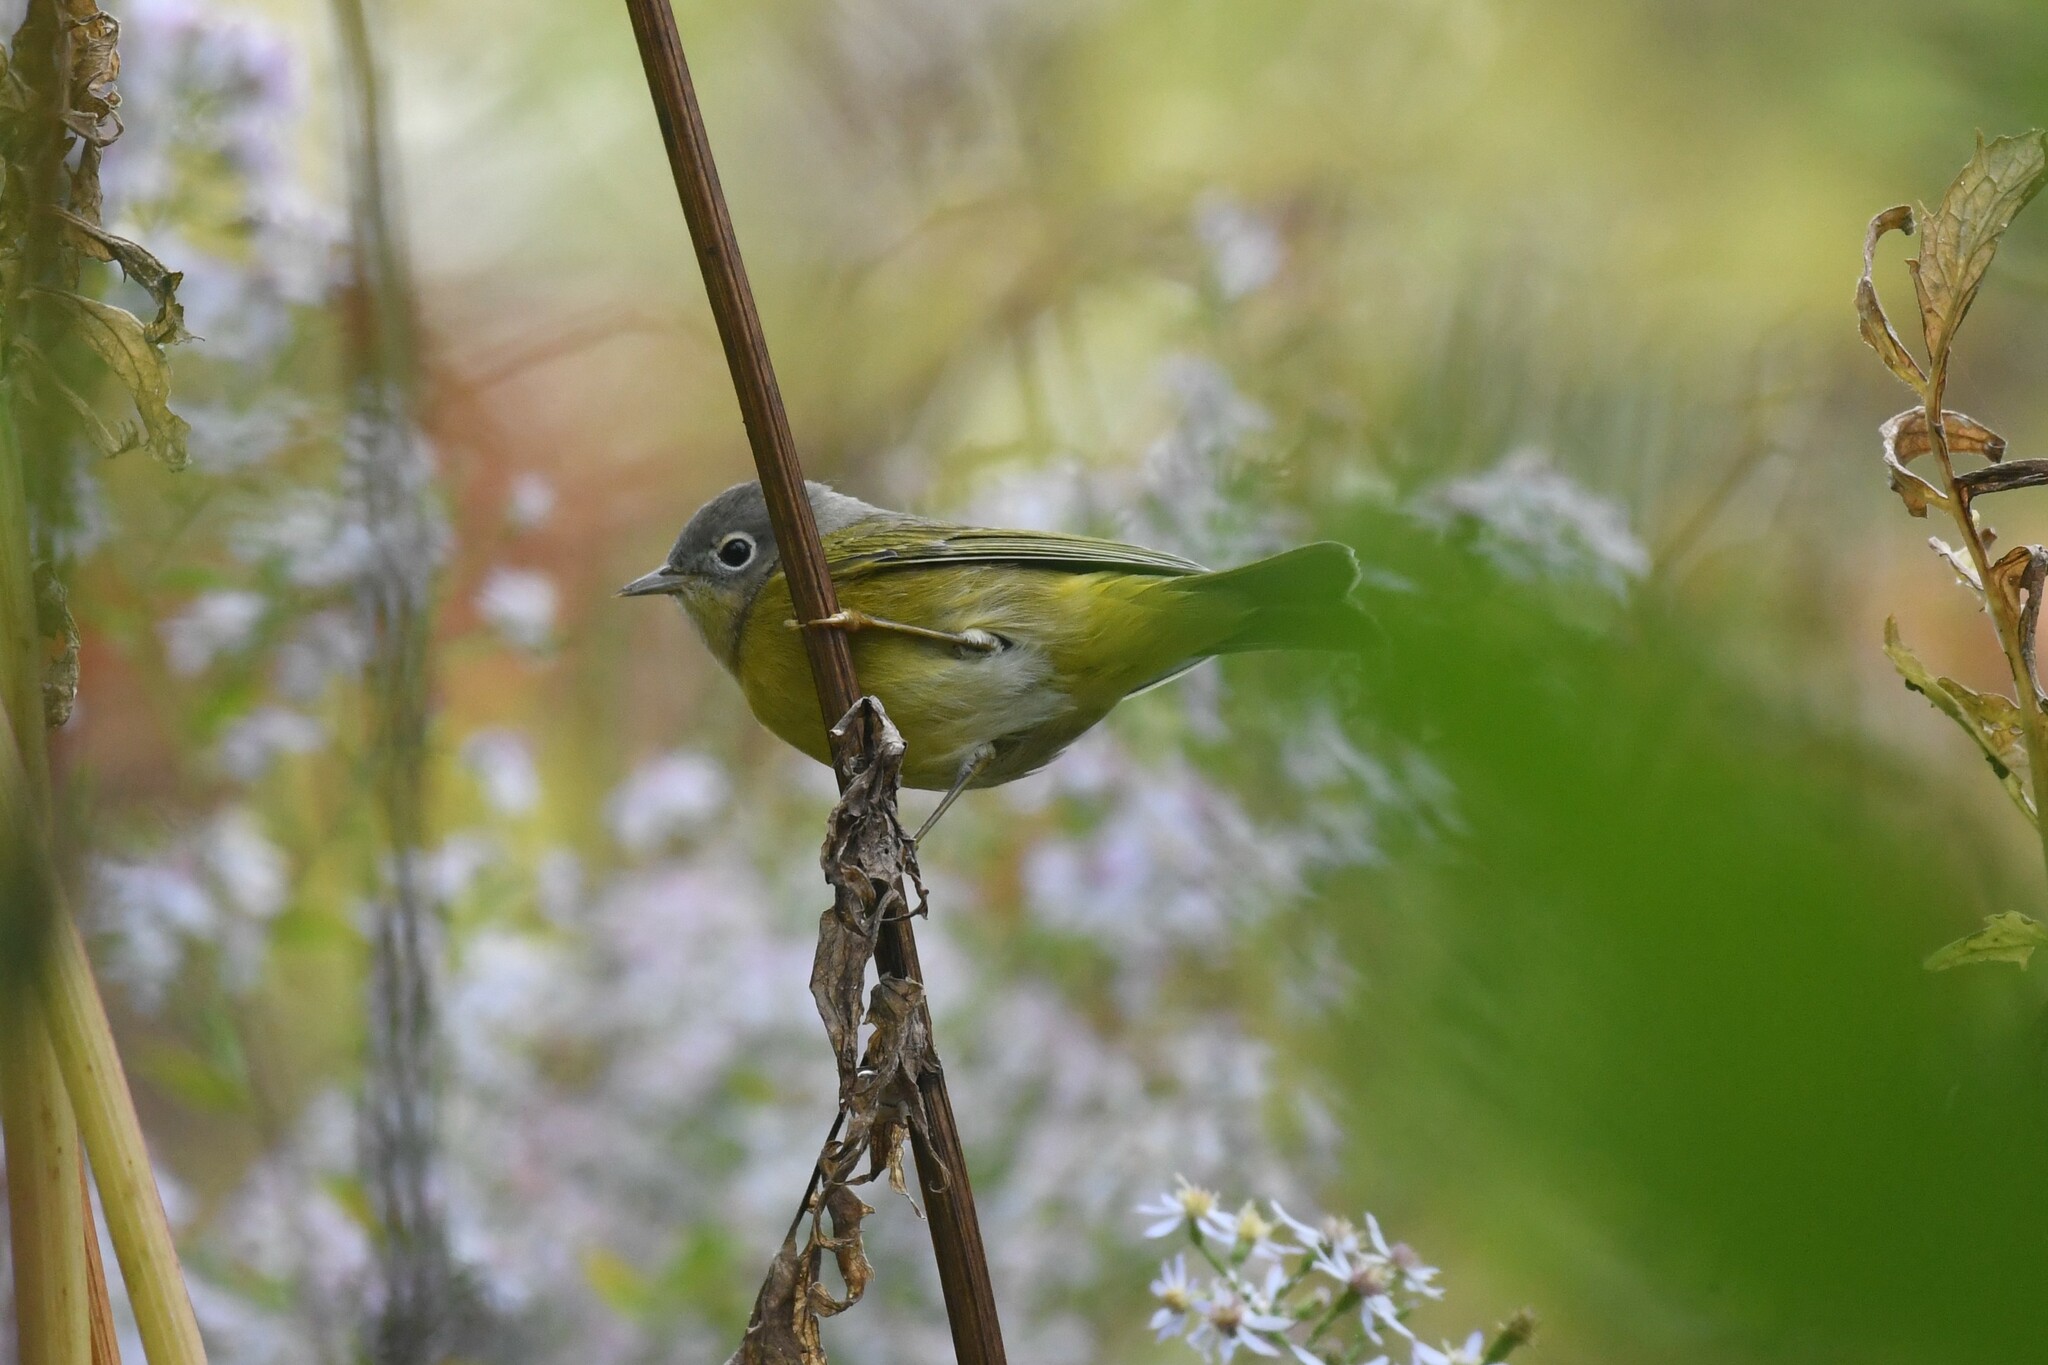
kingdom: Animalia
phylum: Chordata
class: Aves
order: Passeriformes
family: Parulidae
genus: Leiothlypis
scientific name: Leiothlypis ruficapilla
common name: Nashville warbler
